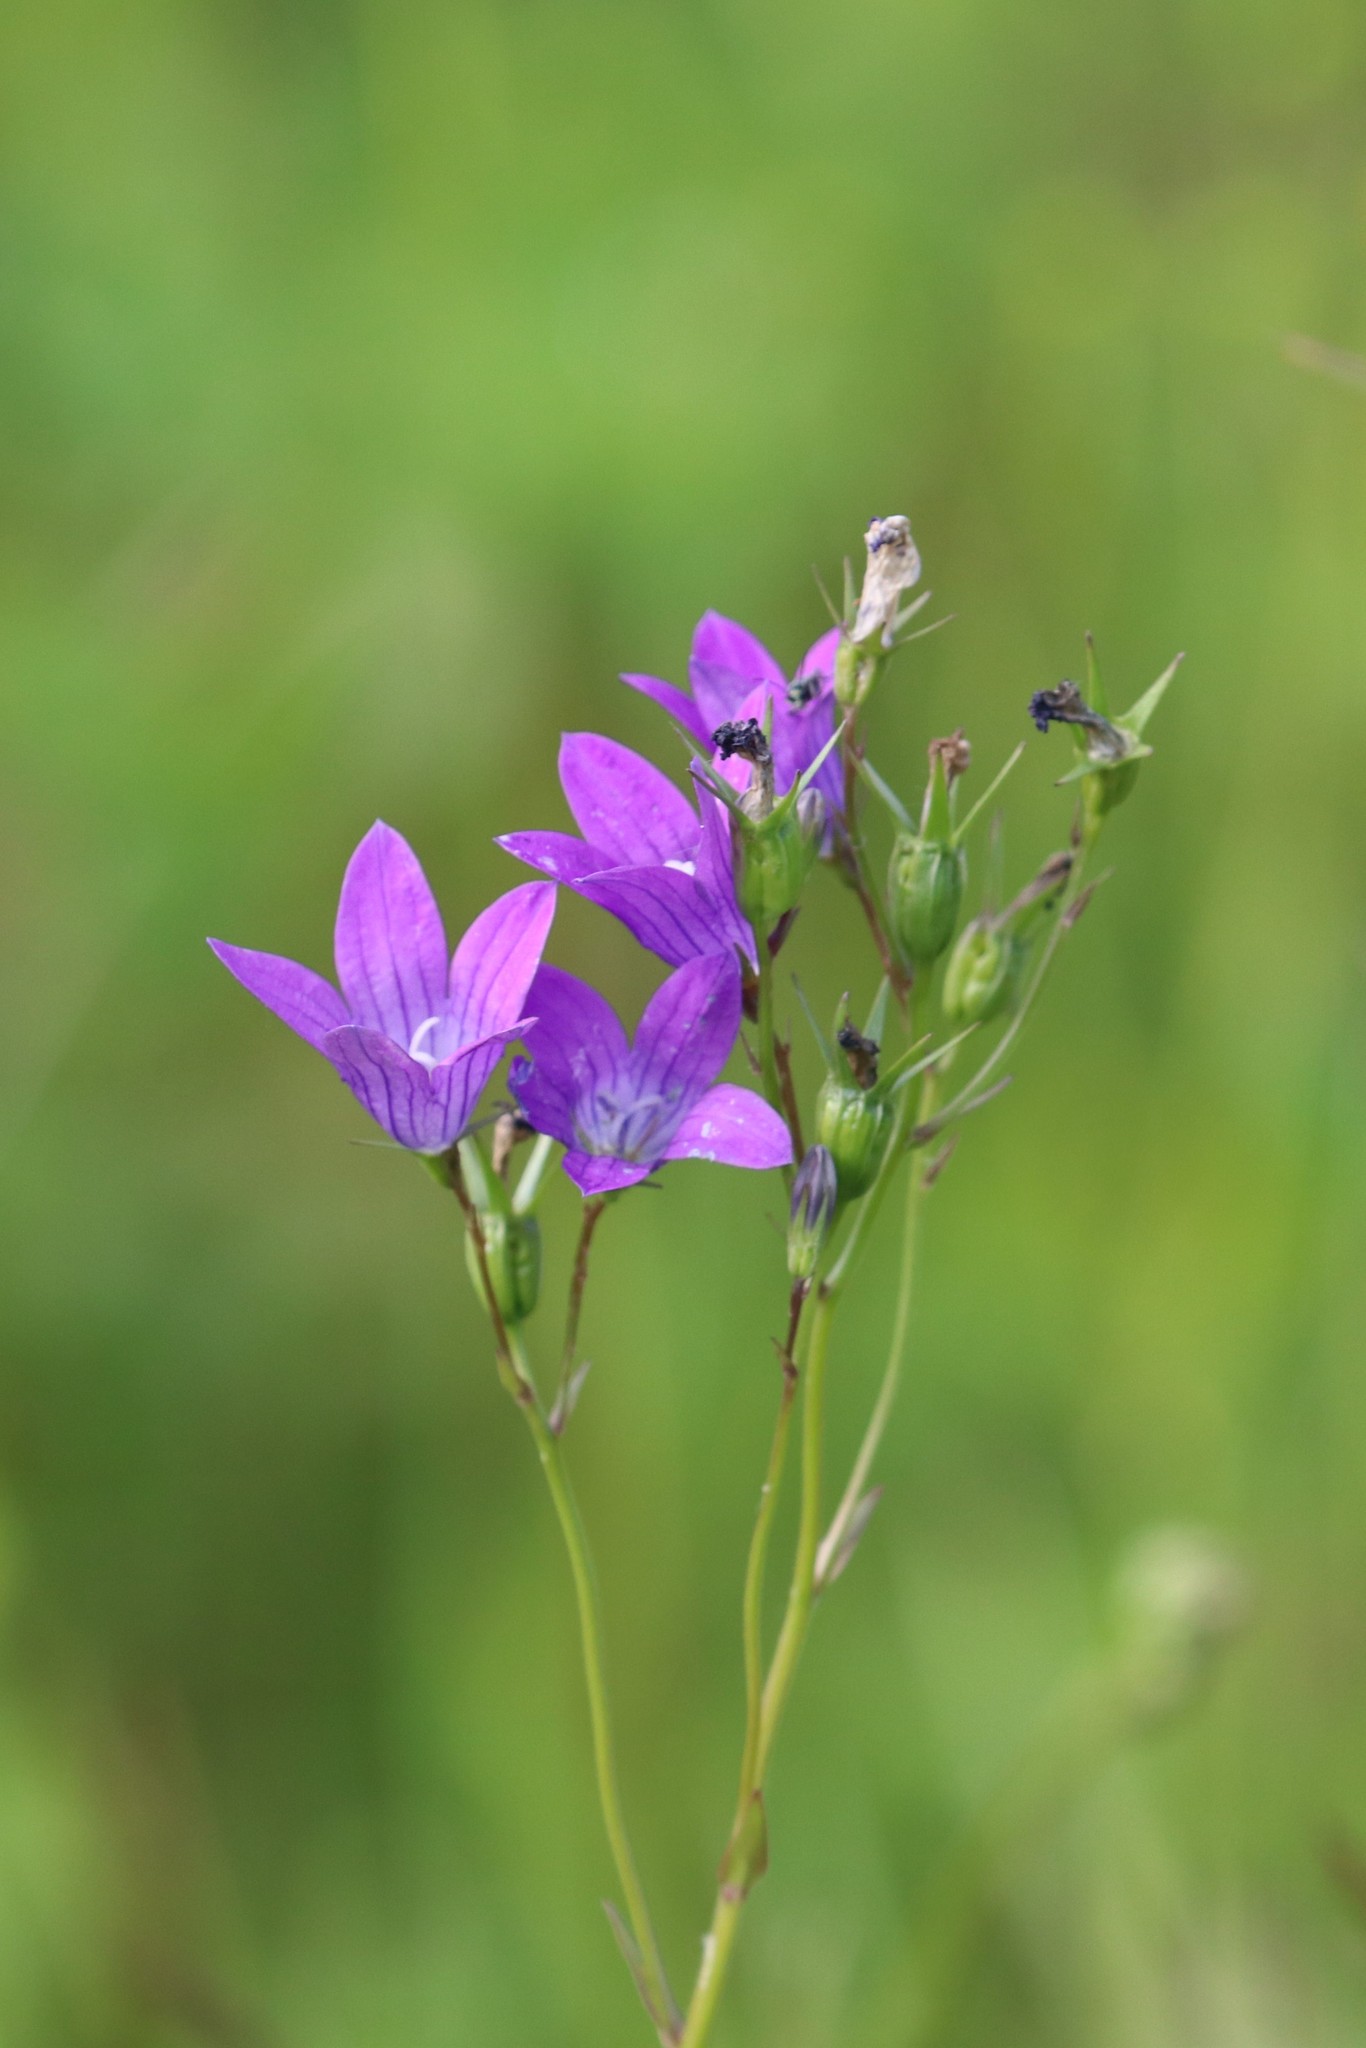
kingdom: Plantae
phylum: Tracheophyta
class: Magnoliopsida
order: Asterales
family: Campanulaceae
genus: Campanula
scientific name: Campanula patula
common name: Spreading bellflower
